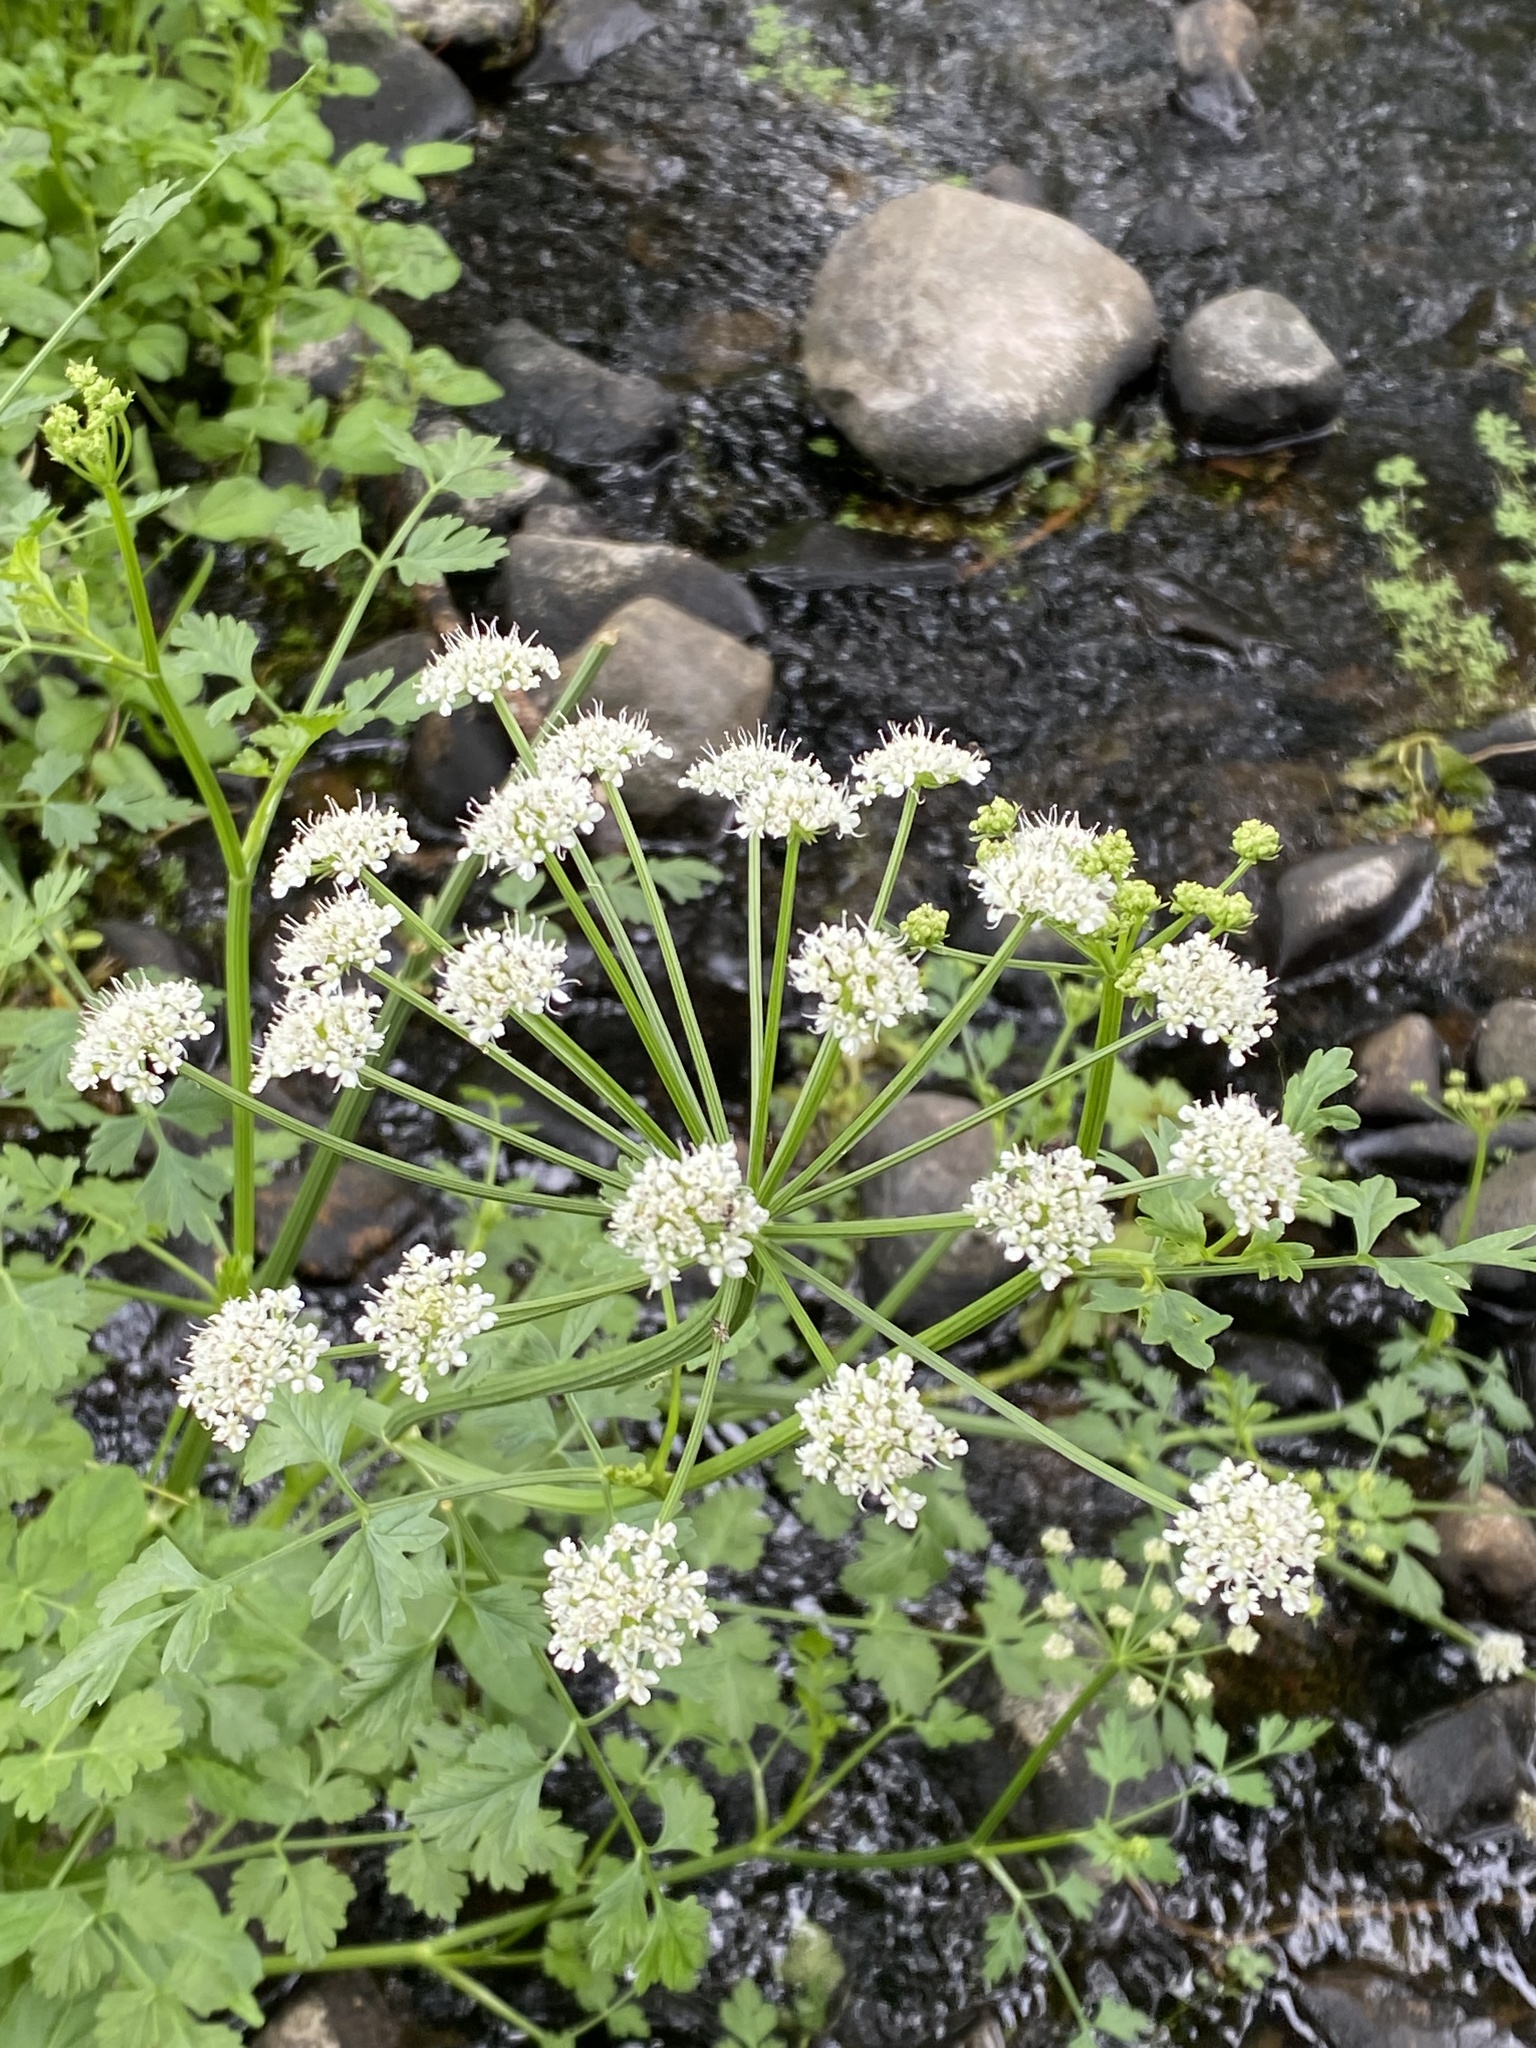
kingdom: Plantae
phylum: Tracheophyta
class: Magnoliopsida
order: Apiales
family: Apiaceae
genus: Oenanthe
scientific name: Oenanthe crocata
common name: Hemlock water-dropwort
